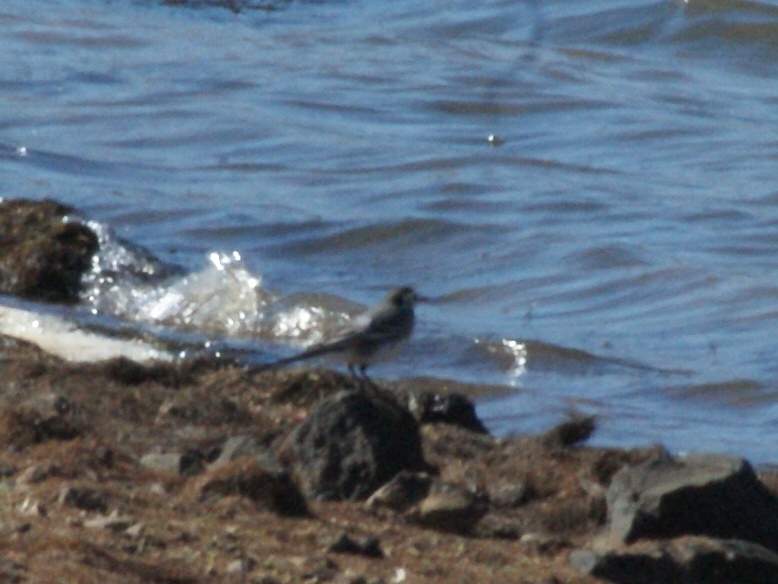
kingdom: Animalia
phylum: Chordata
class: Aves
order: Passeriformes
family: Motacillidae
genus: Motacilla
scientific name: Motacilla alba
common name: White wagtail
